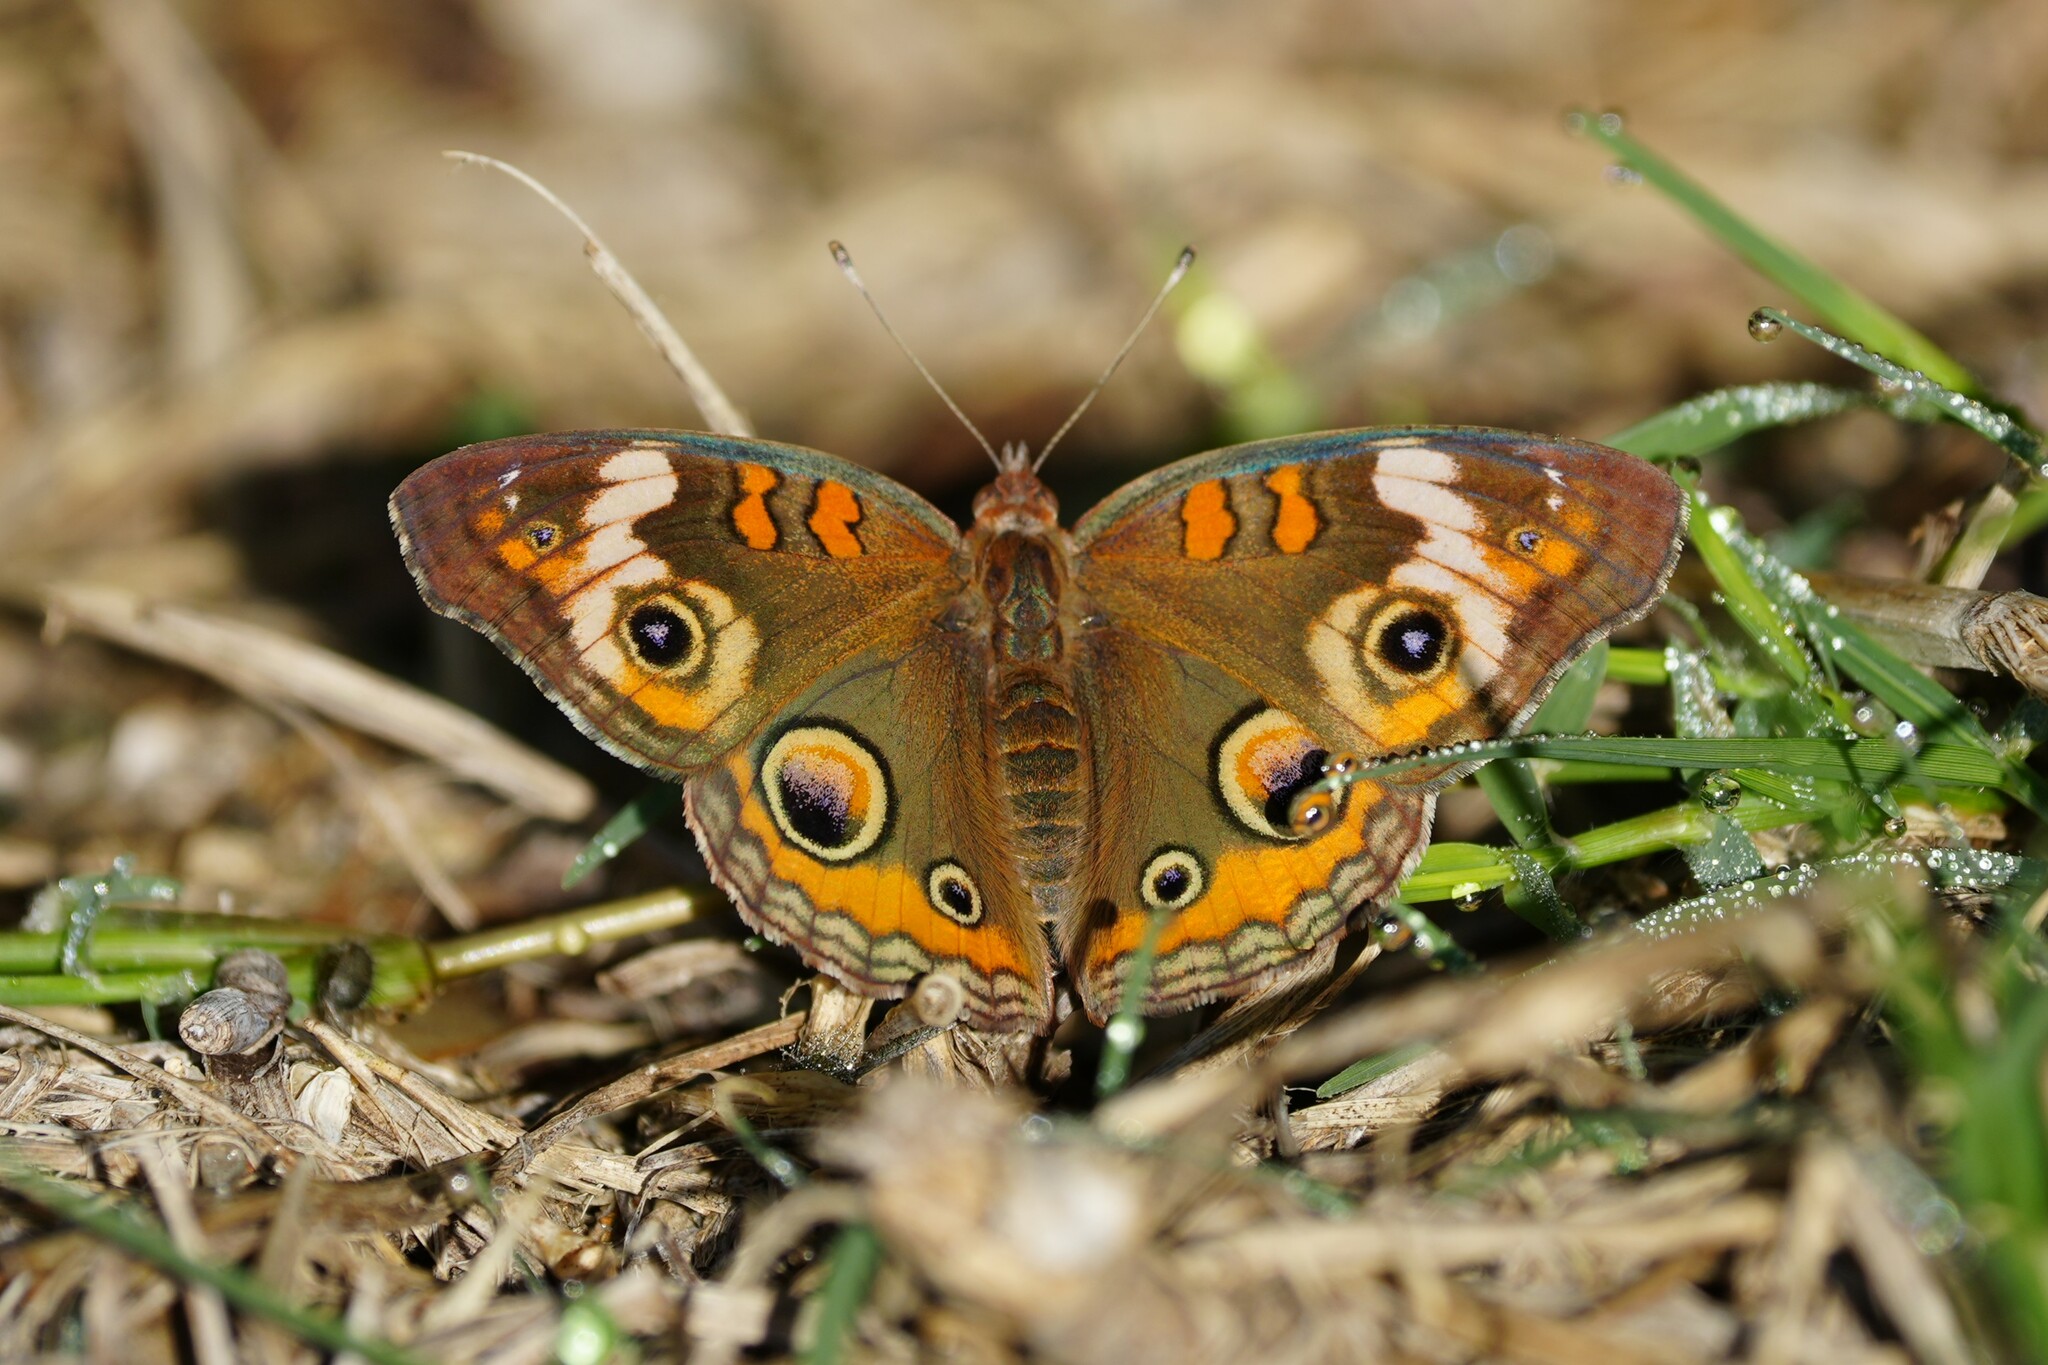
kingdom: Animalia
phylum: Arthropoda
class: Insecta
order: Lepidoptera
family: Nymphalidae
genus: Junonia
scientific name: Junonia coenia
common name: Common buckeye
